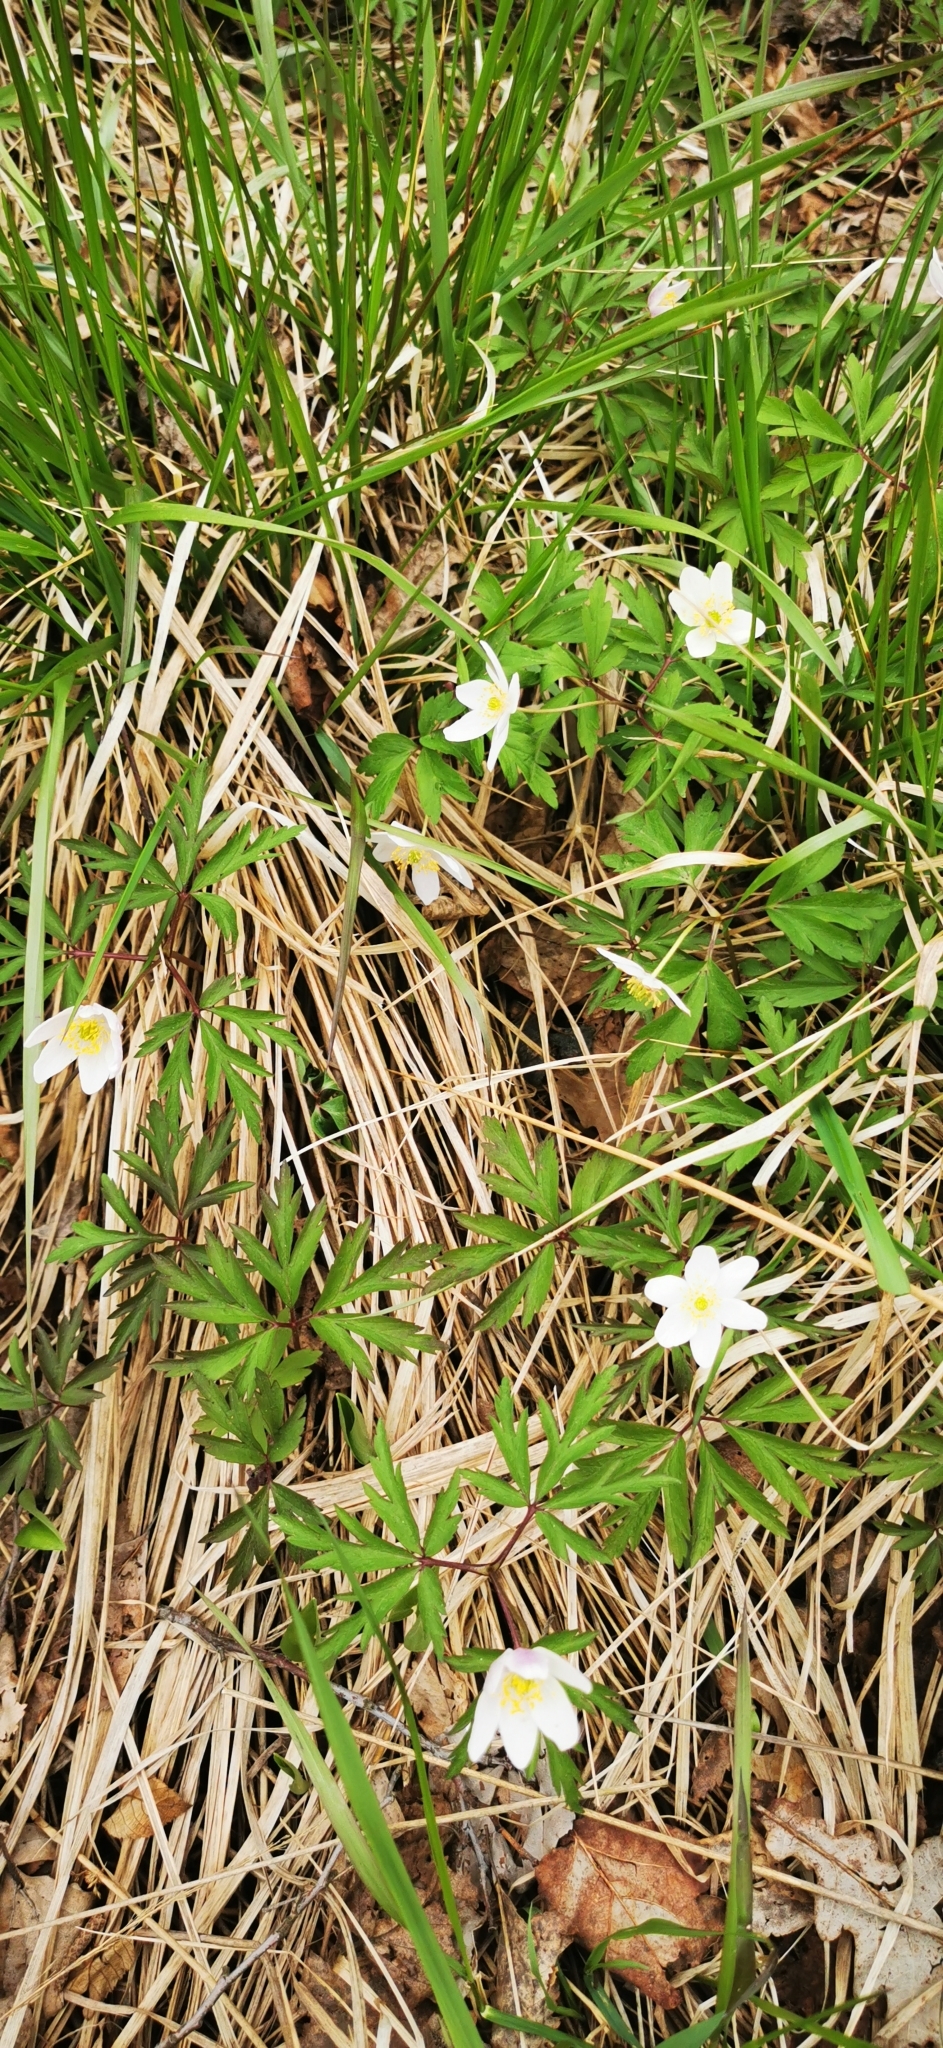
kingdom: Plantae
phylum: Tracheophyta
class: Magnoliopsida
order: Ranunculales
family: Ranunculaceae
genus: Anemone
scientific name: Anemone nemorosa
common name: Wood anemone
